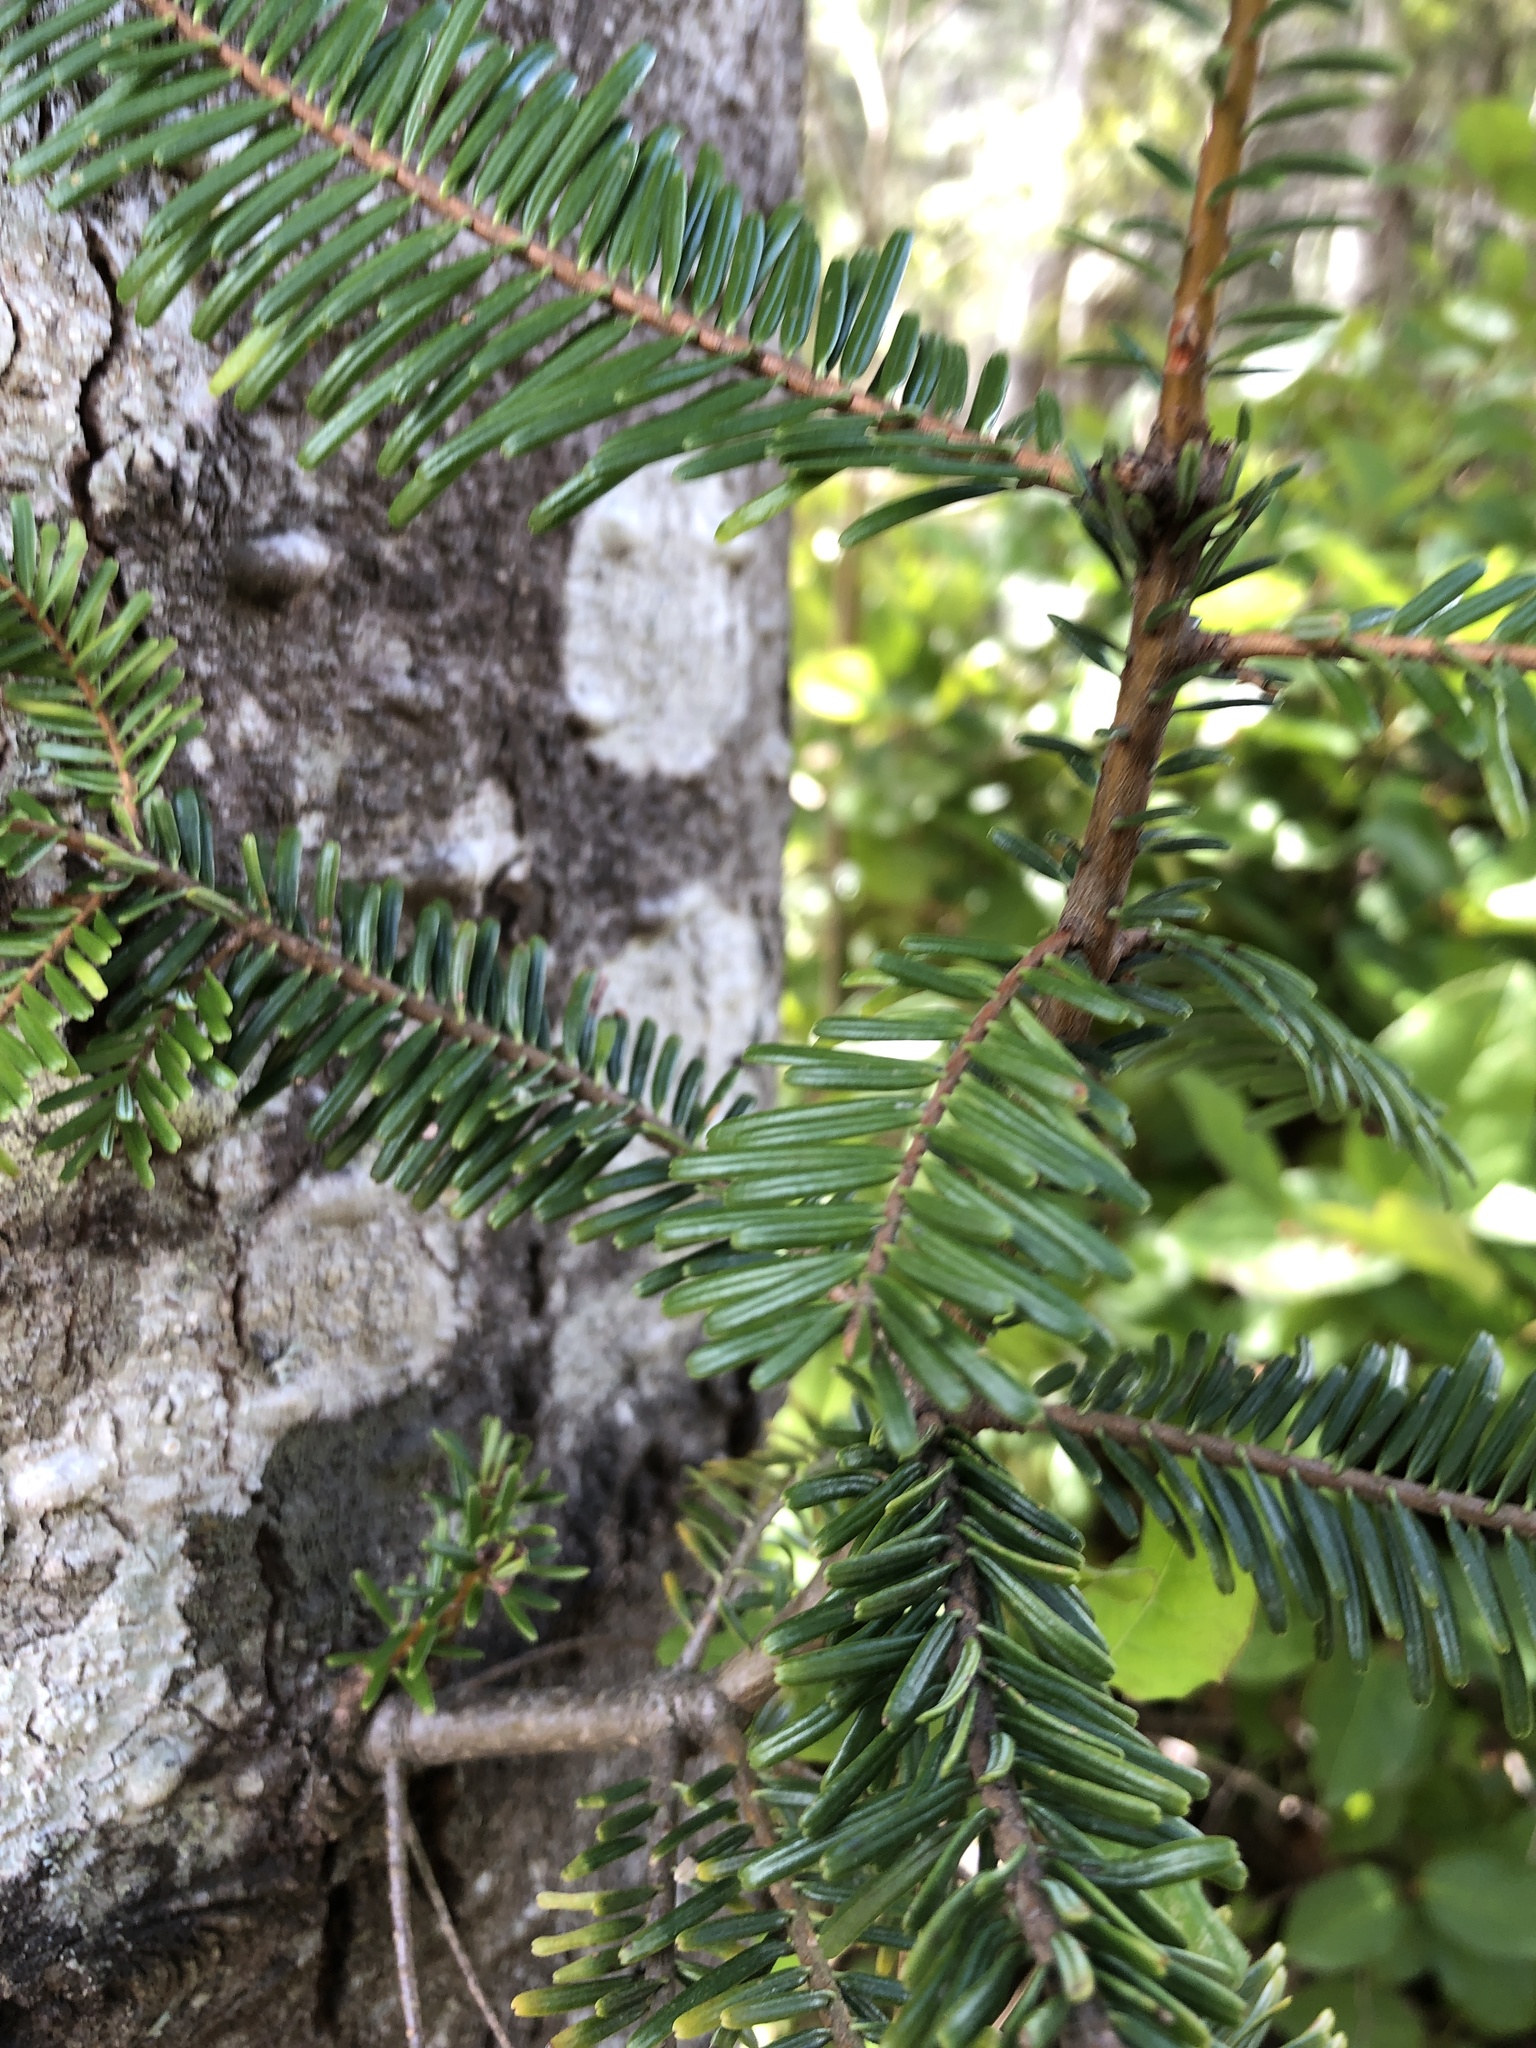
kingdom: Plantae
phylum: Tracheophyta
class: Pinopsida
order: Pinales
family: Pinaceae
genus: Abies
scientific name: Abies grandis
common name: Giant fir
